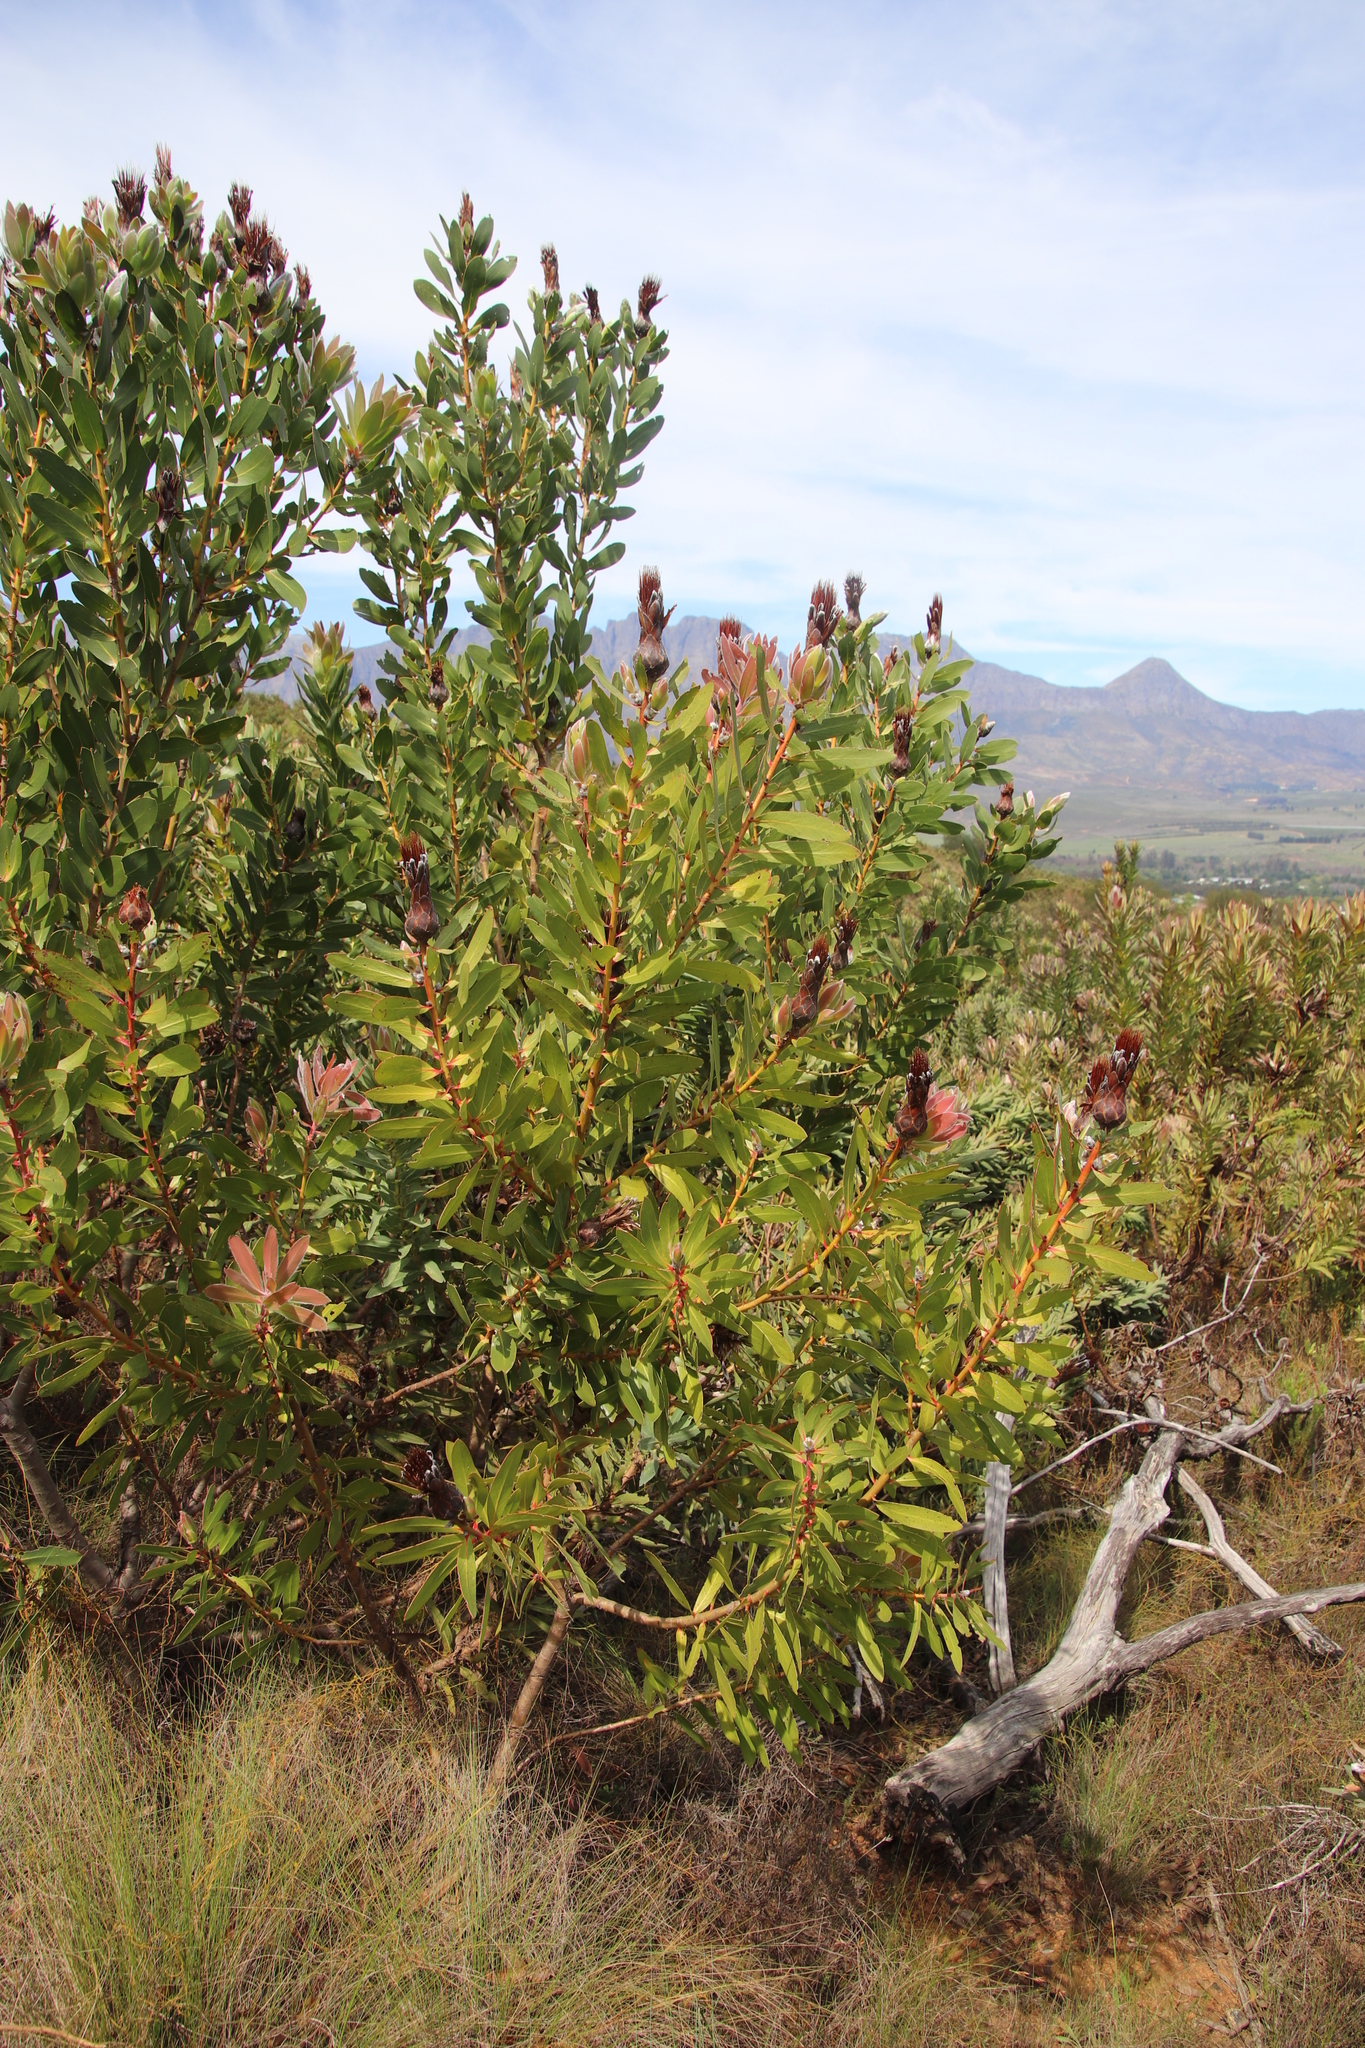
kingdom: Plantae
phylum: Tracheophyta
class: Magnoliopsida
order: Proteales
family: Proteaceae
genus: Protea
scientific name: Protea
